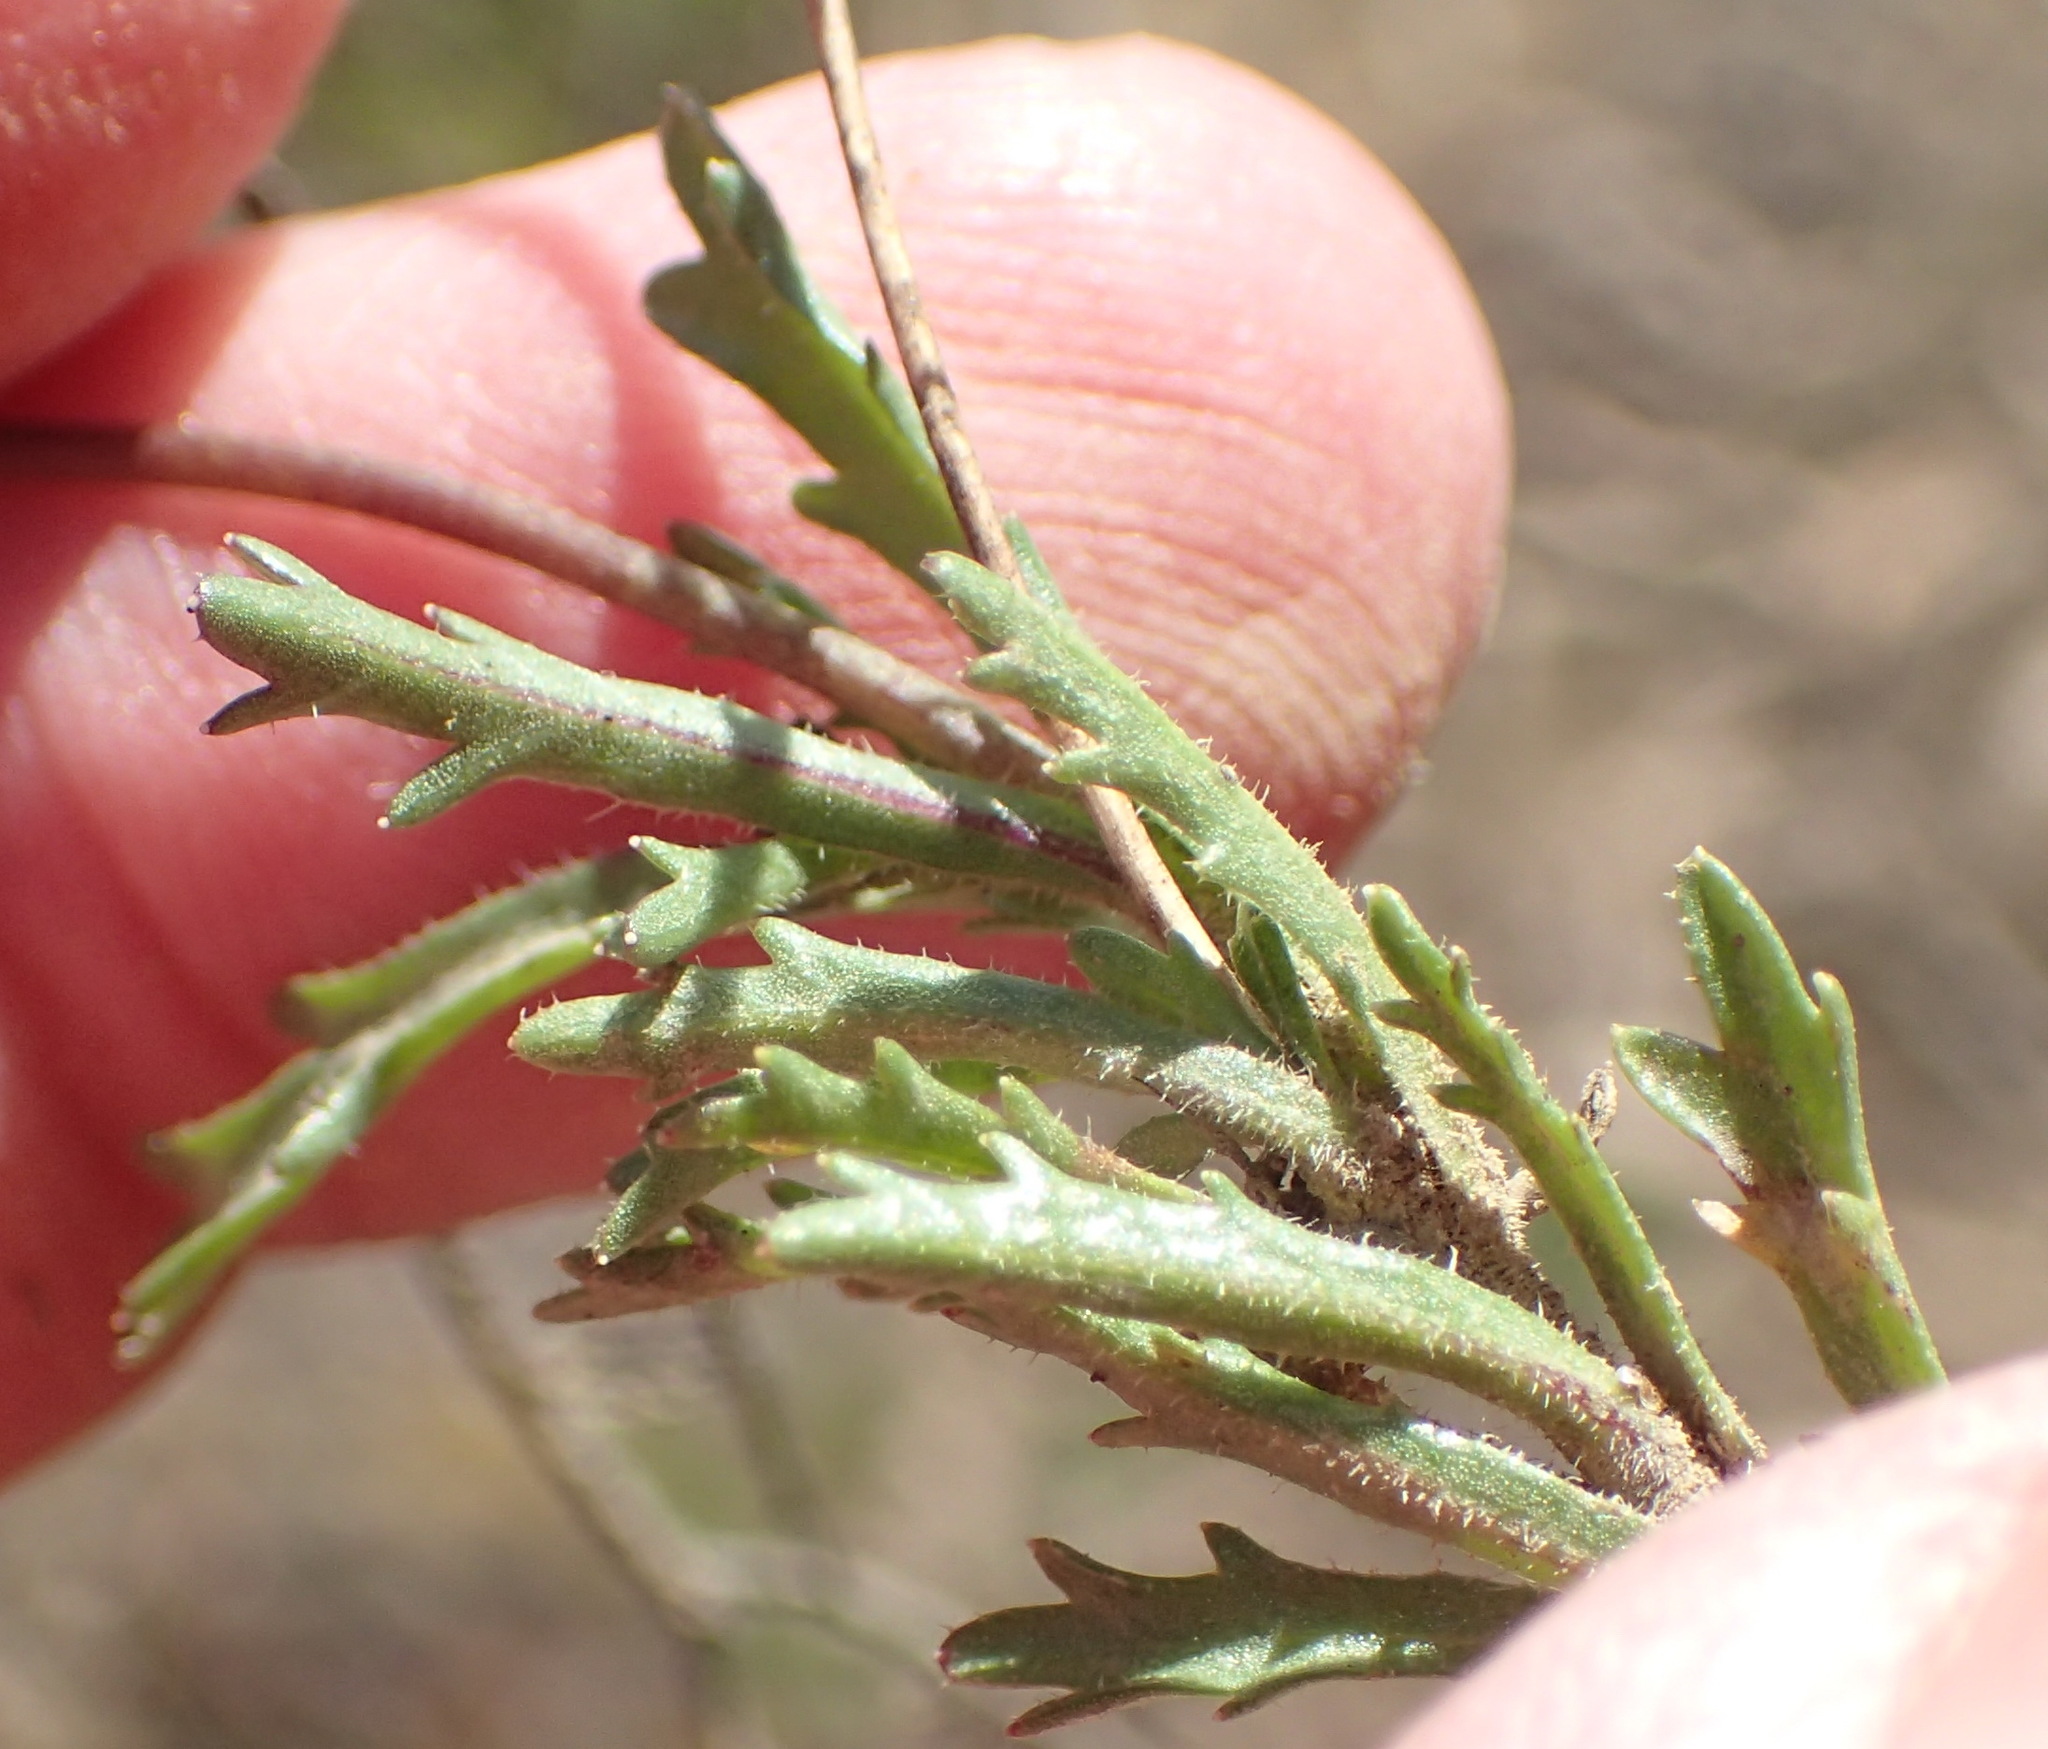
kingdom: Plantae
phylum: Tracheophyta
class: Magnoliopsida
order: Asterales
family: Campanulaceae
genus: Lobelia
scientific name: Lobelia tomentosa
